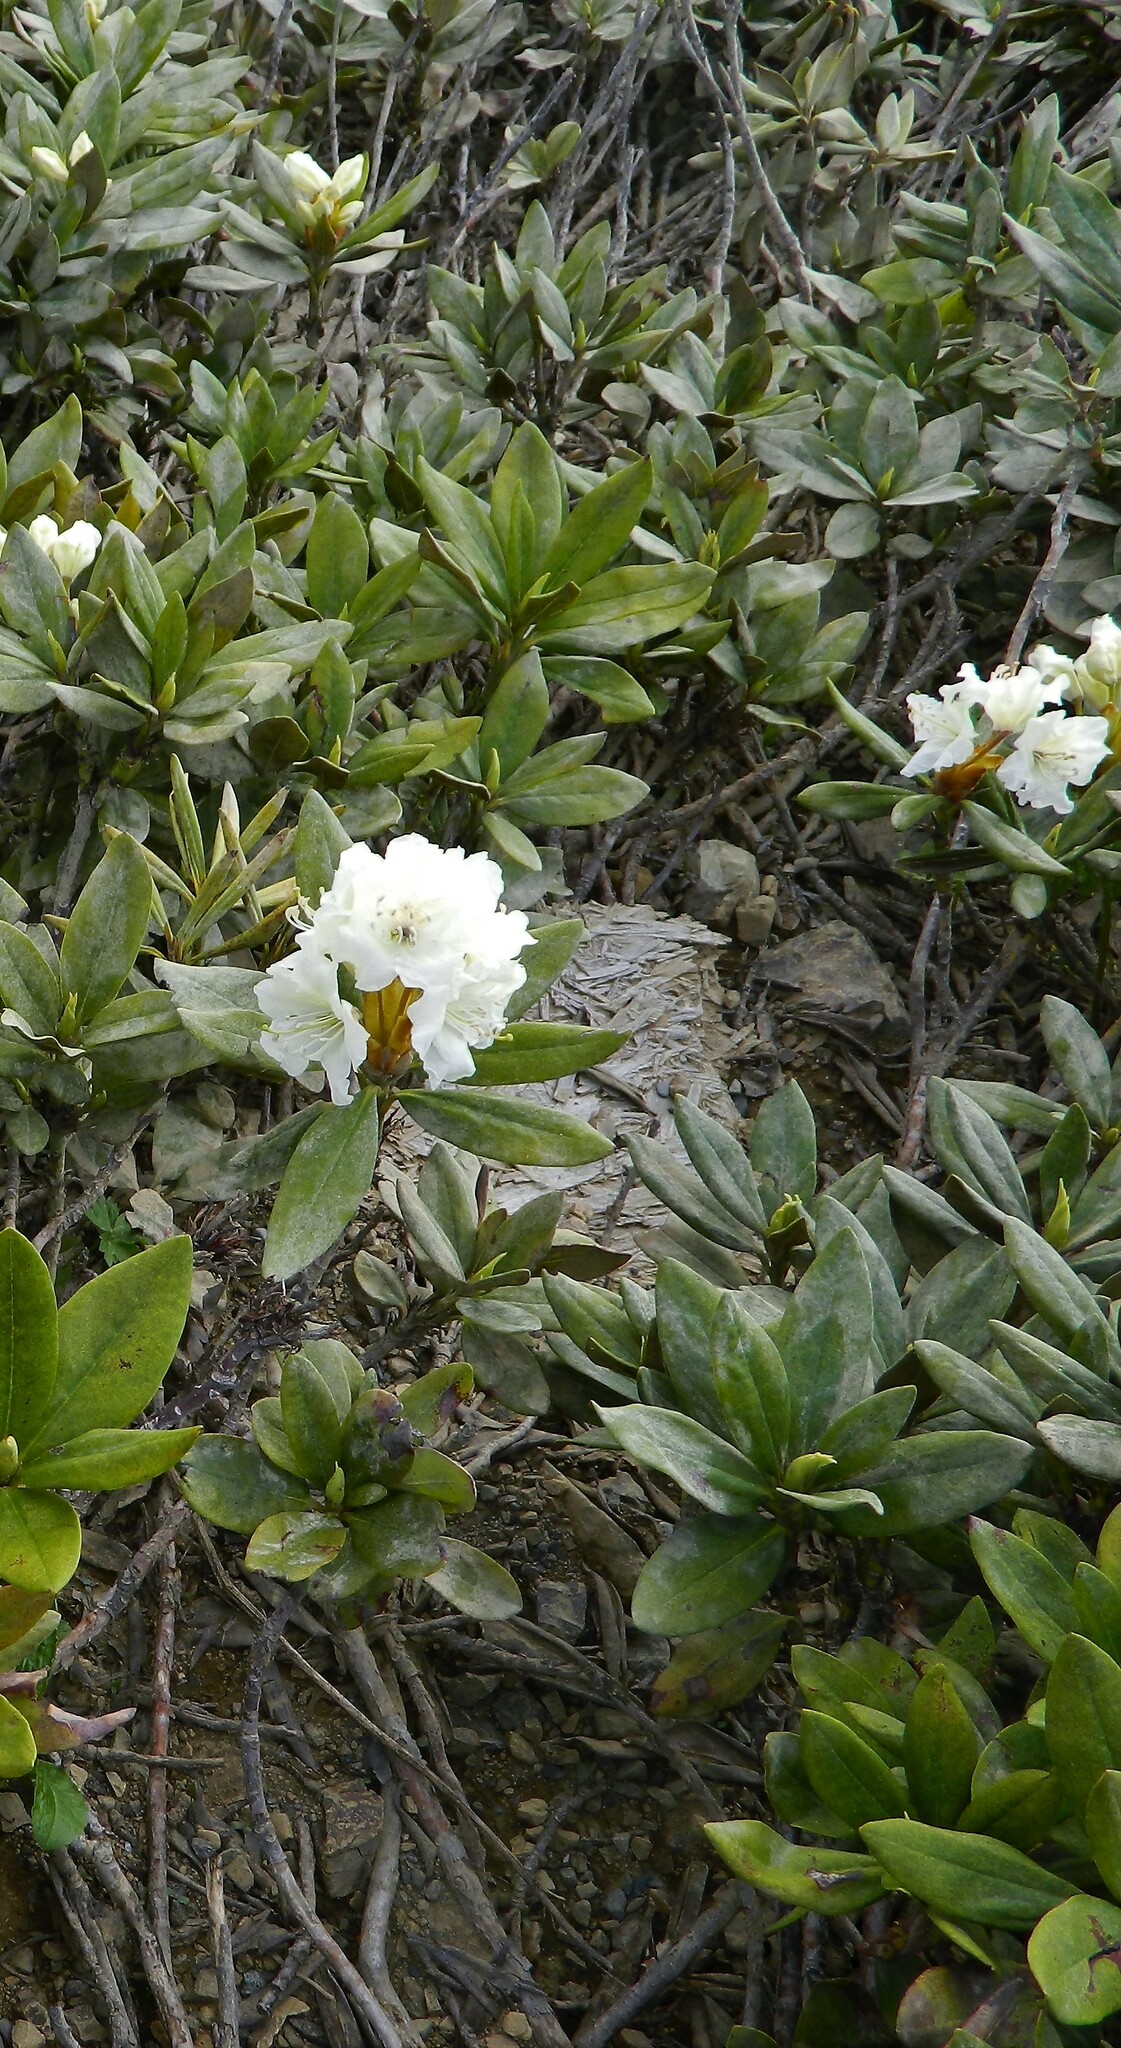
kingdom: Plantae
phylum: Tracheophyta
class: Magnoliopsida
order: Ericales
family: Ericaceae
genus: Rhododendron
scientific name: Rhododendron caucasicum
